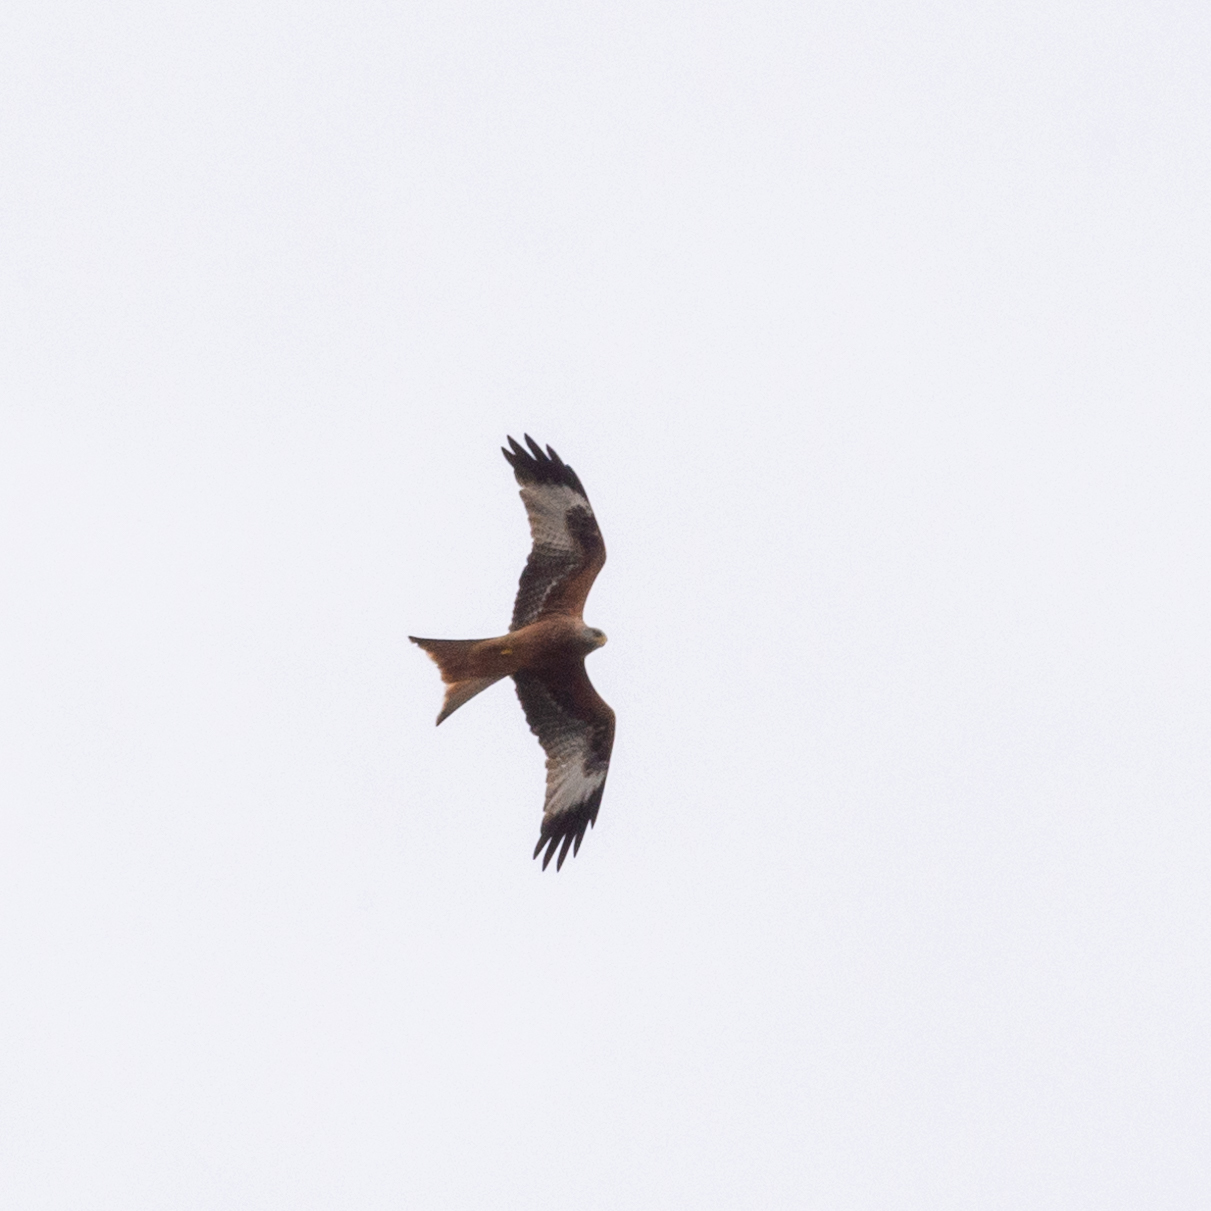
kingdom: Animalia
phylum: Chordata
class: Aves
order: Accipitriformes
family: Accipitridae
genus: Milvus
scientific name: Milvus milvus
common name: Red kite
